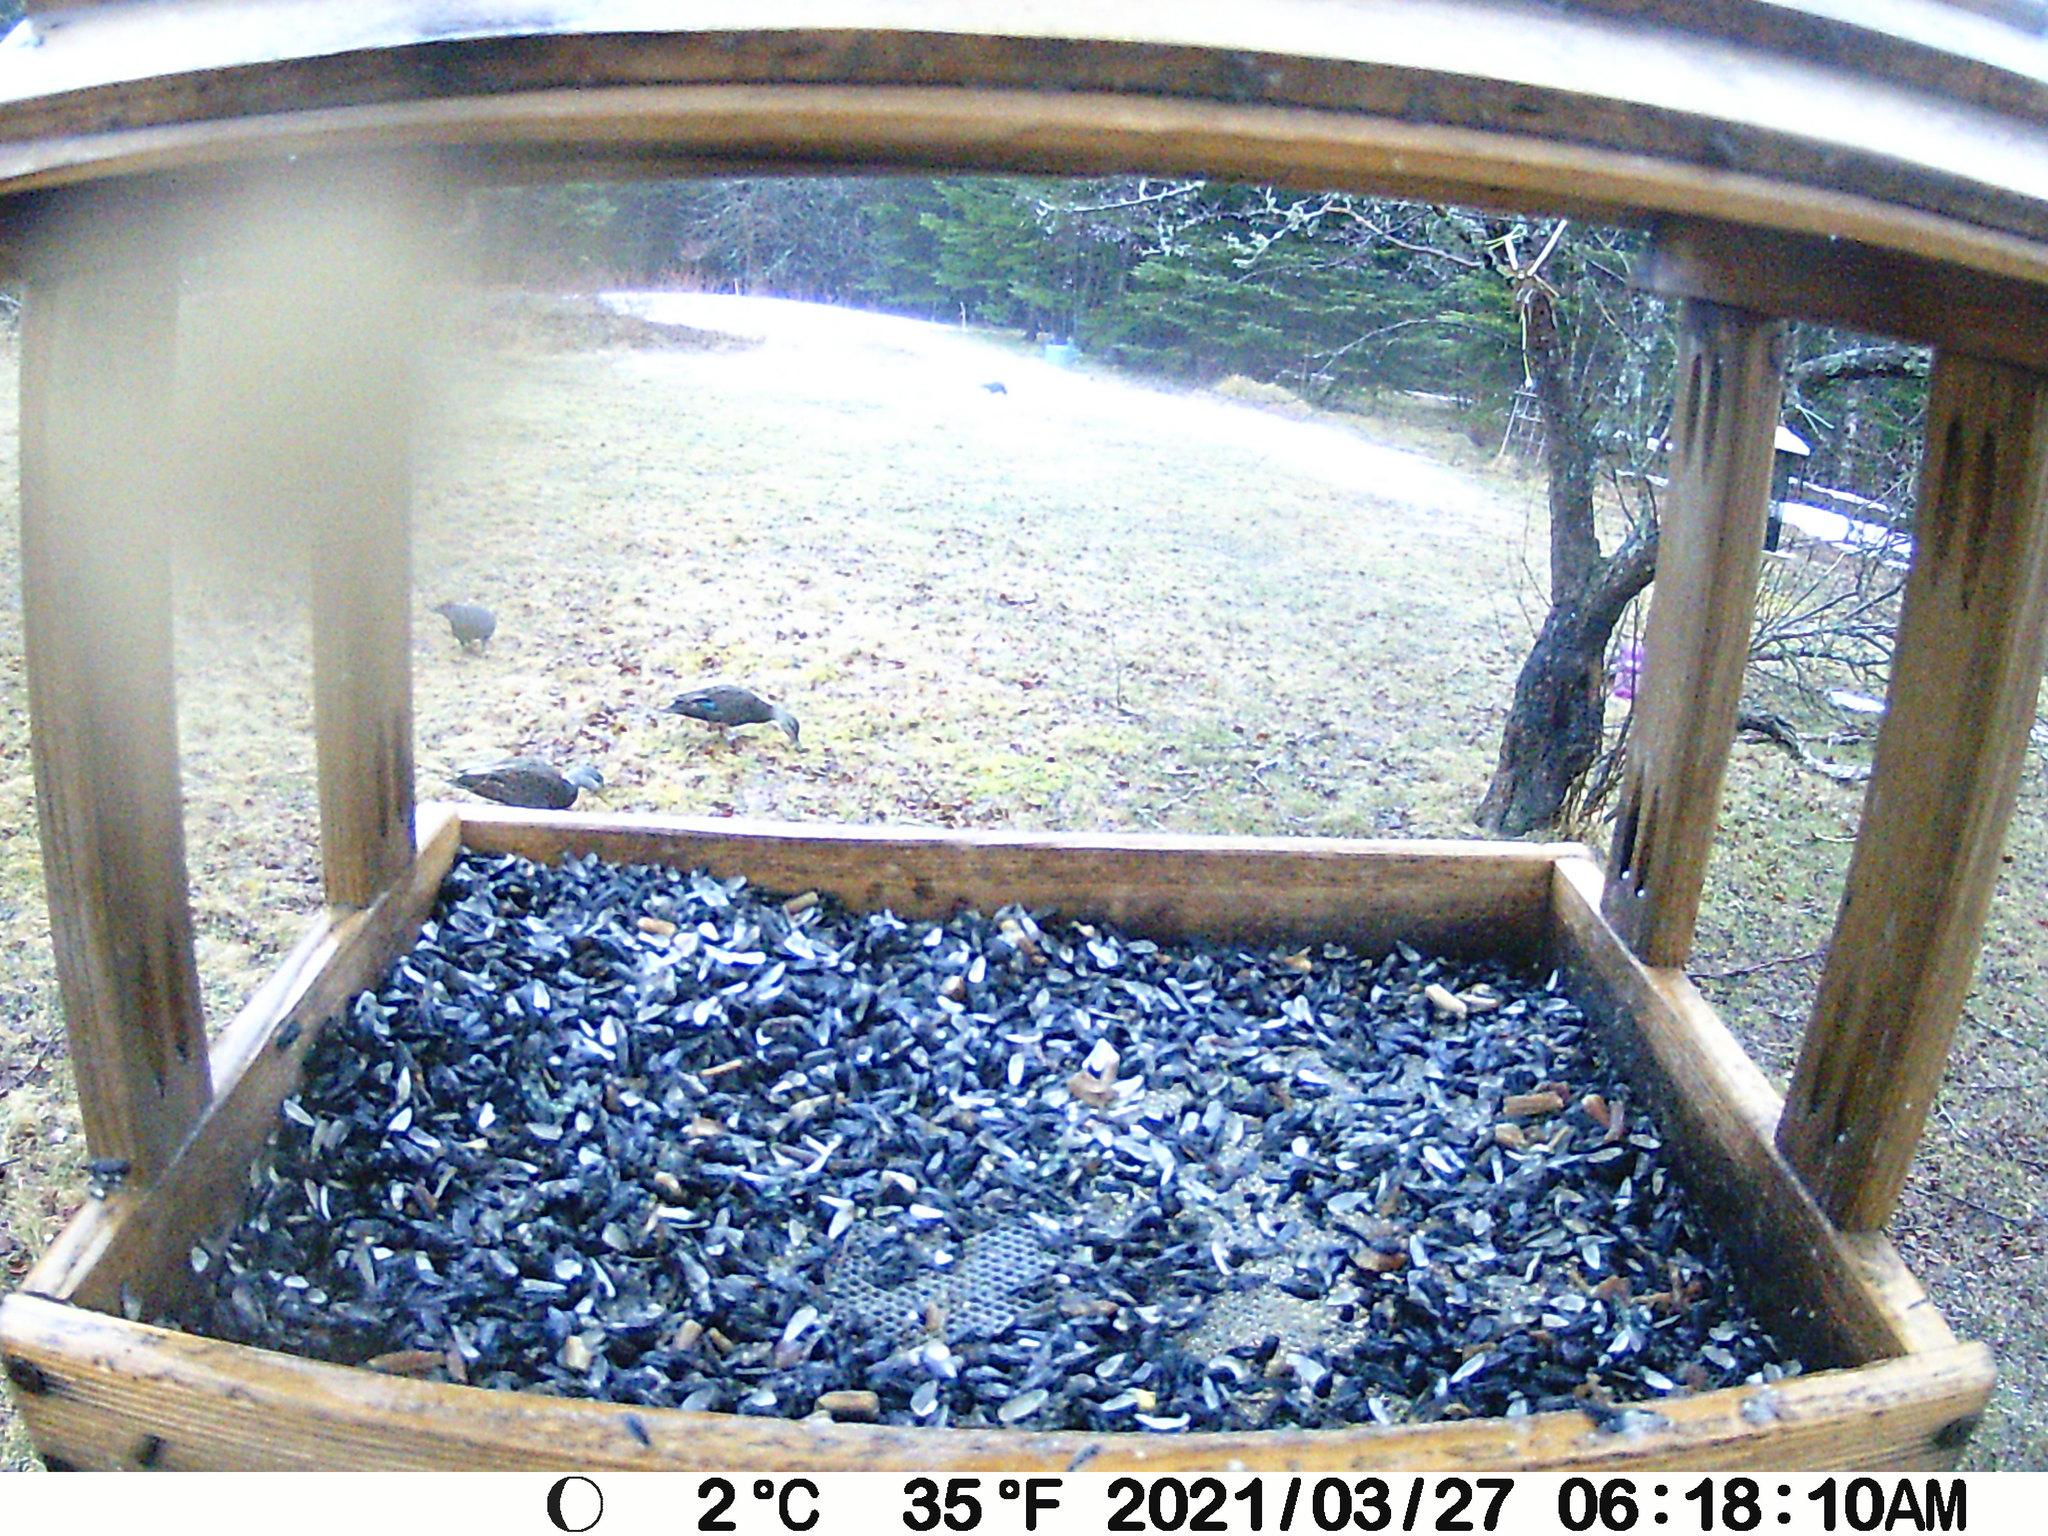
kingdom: Animalia
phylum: Chordata
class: Aves
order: Anseriformes
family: Anatidae
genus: Anas
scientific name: Anas rubripes
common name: American black duck
